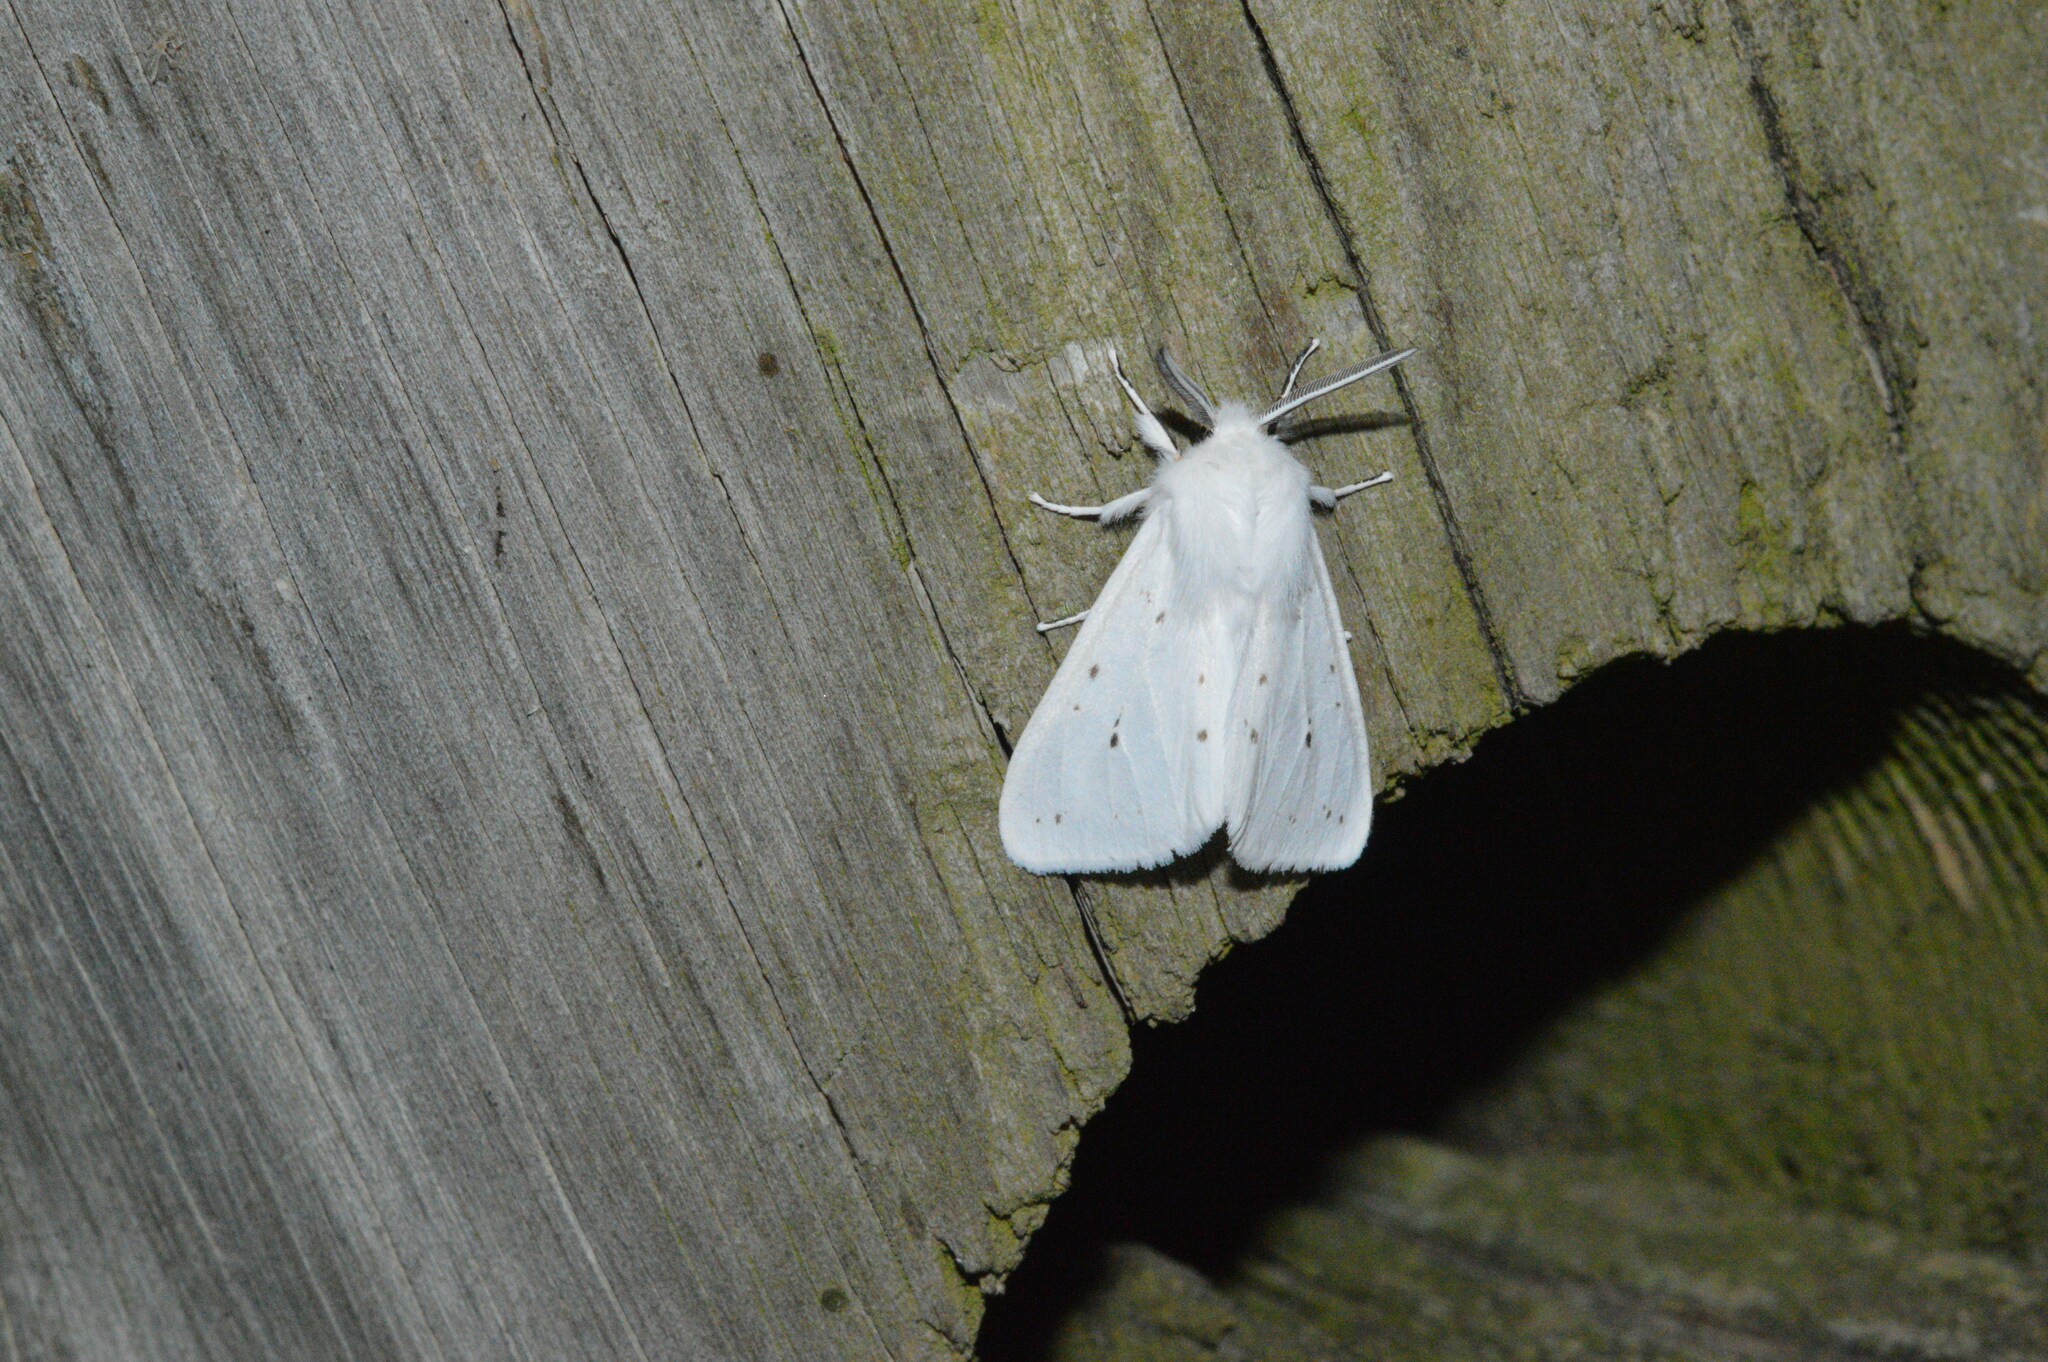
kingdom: Animalia
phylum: Arthropoda
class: Insecta
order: Lepidoptera
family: Erebidae
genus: Spilosoma
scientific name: Spilosoma congrua
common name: Agreeable tiger moth
